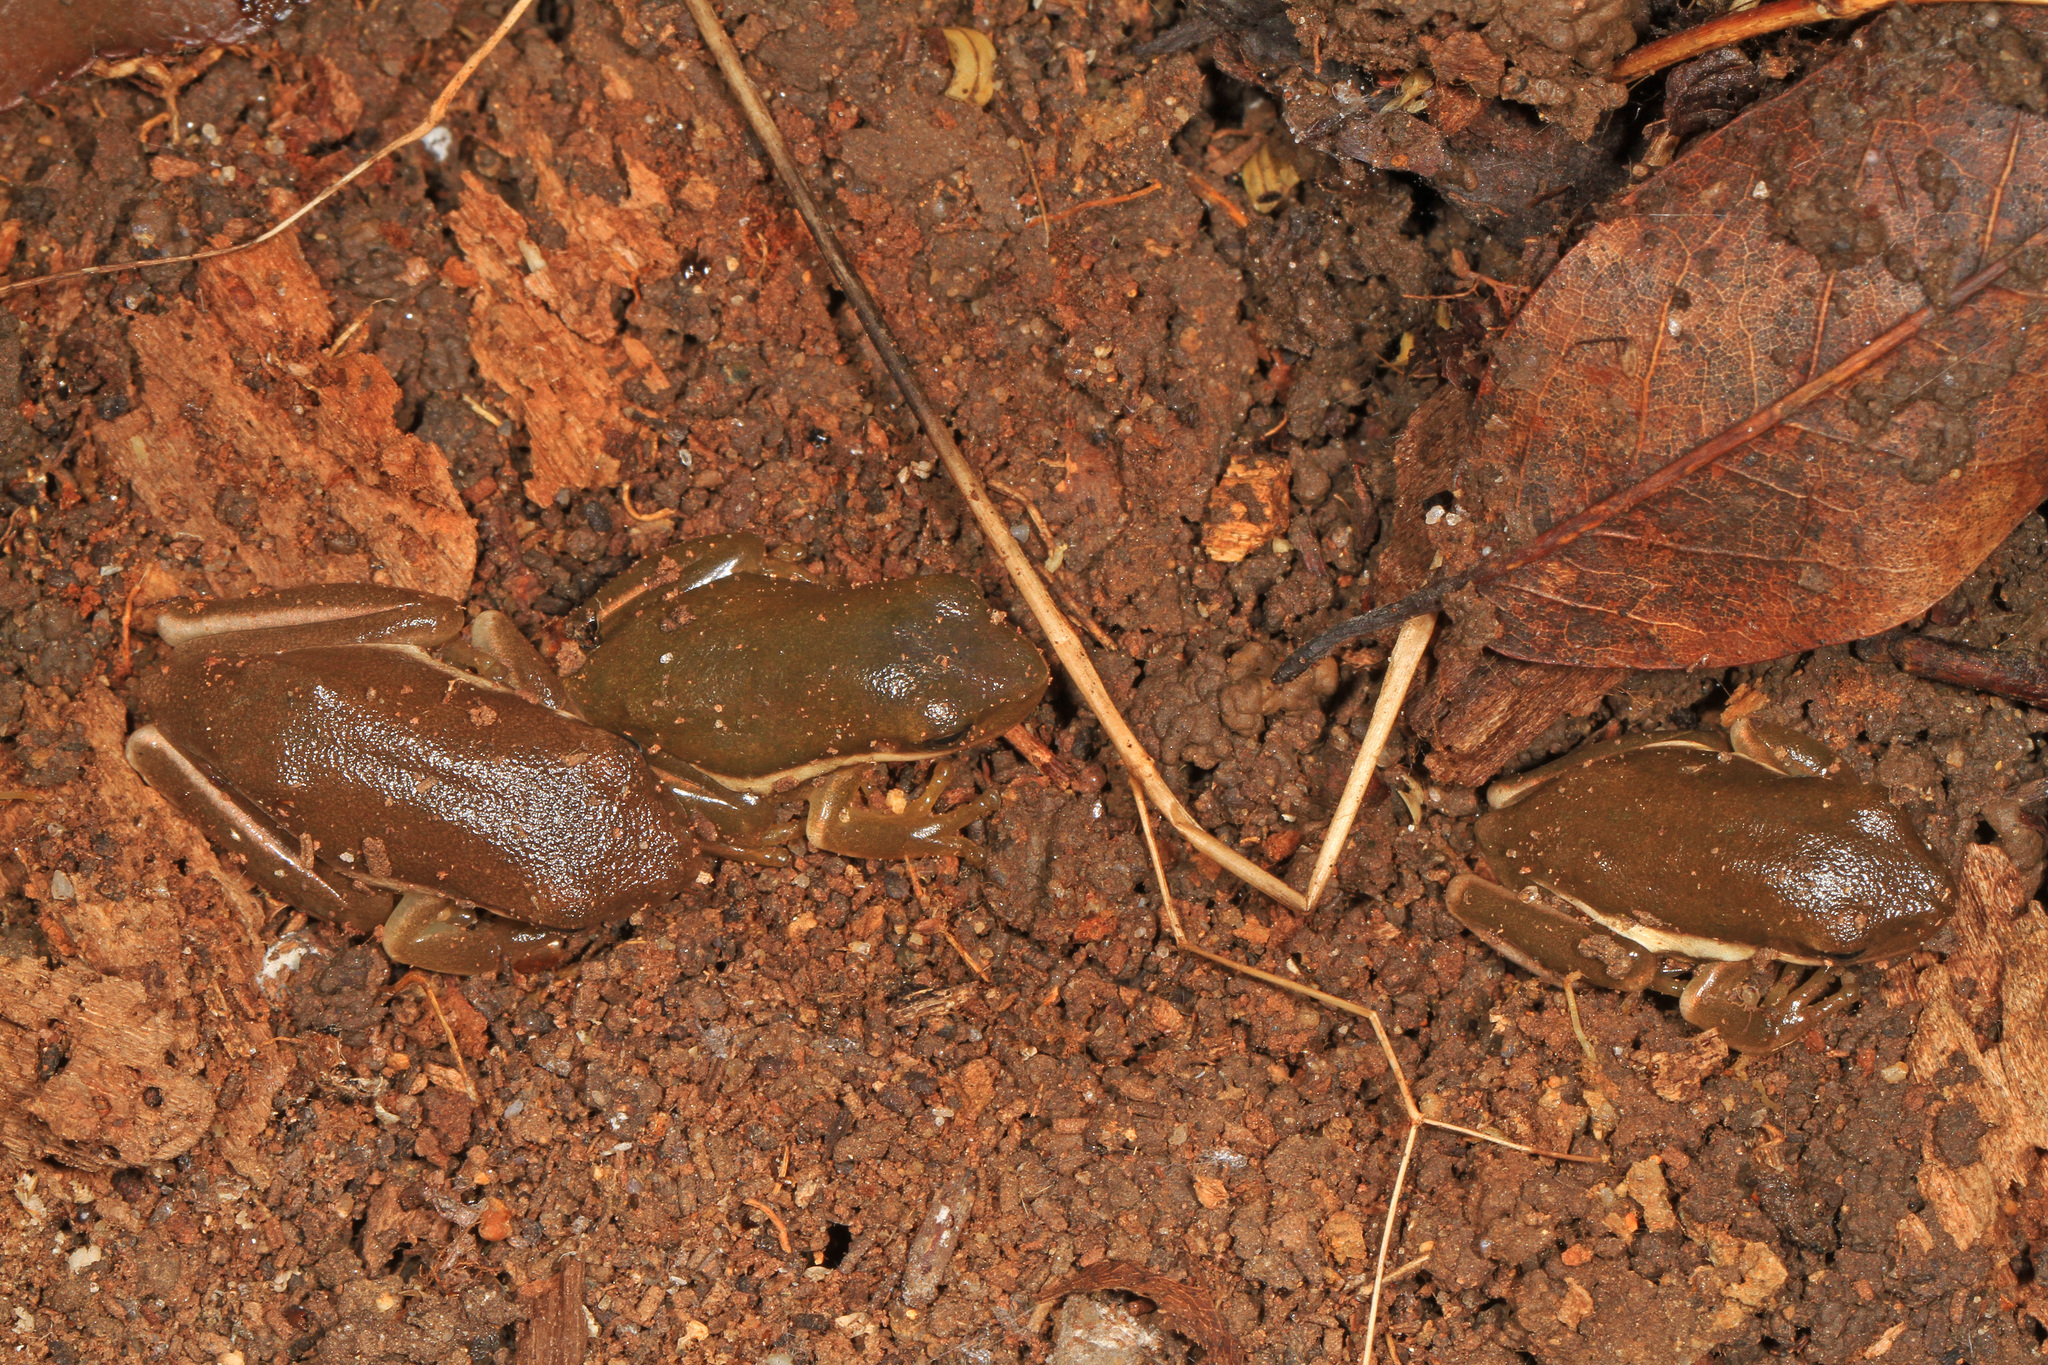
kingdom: Animalia
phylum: Chordata
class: Amphibia
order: Anura
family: Hylidae
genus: Dryophytes
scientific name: Dryophytes cinereus
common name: Green treefrog
